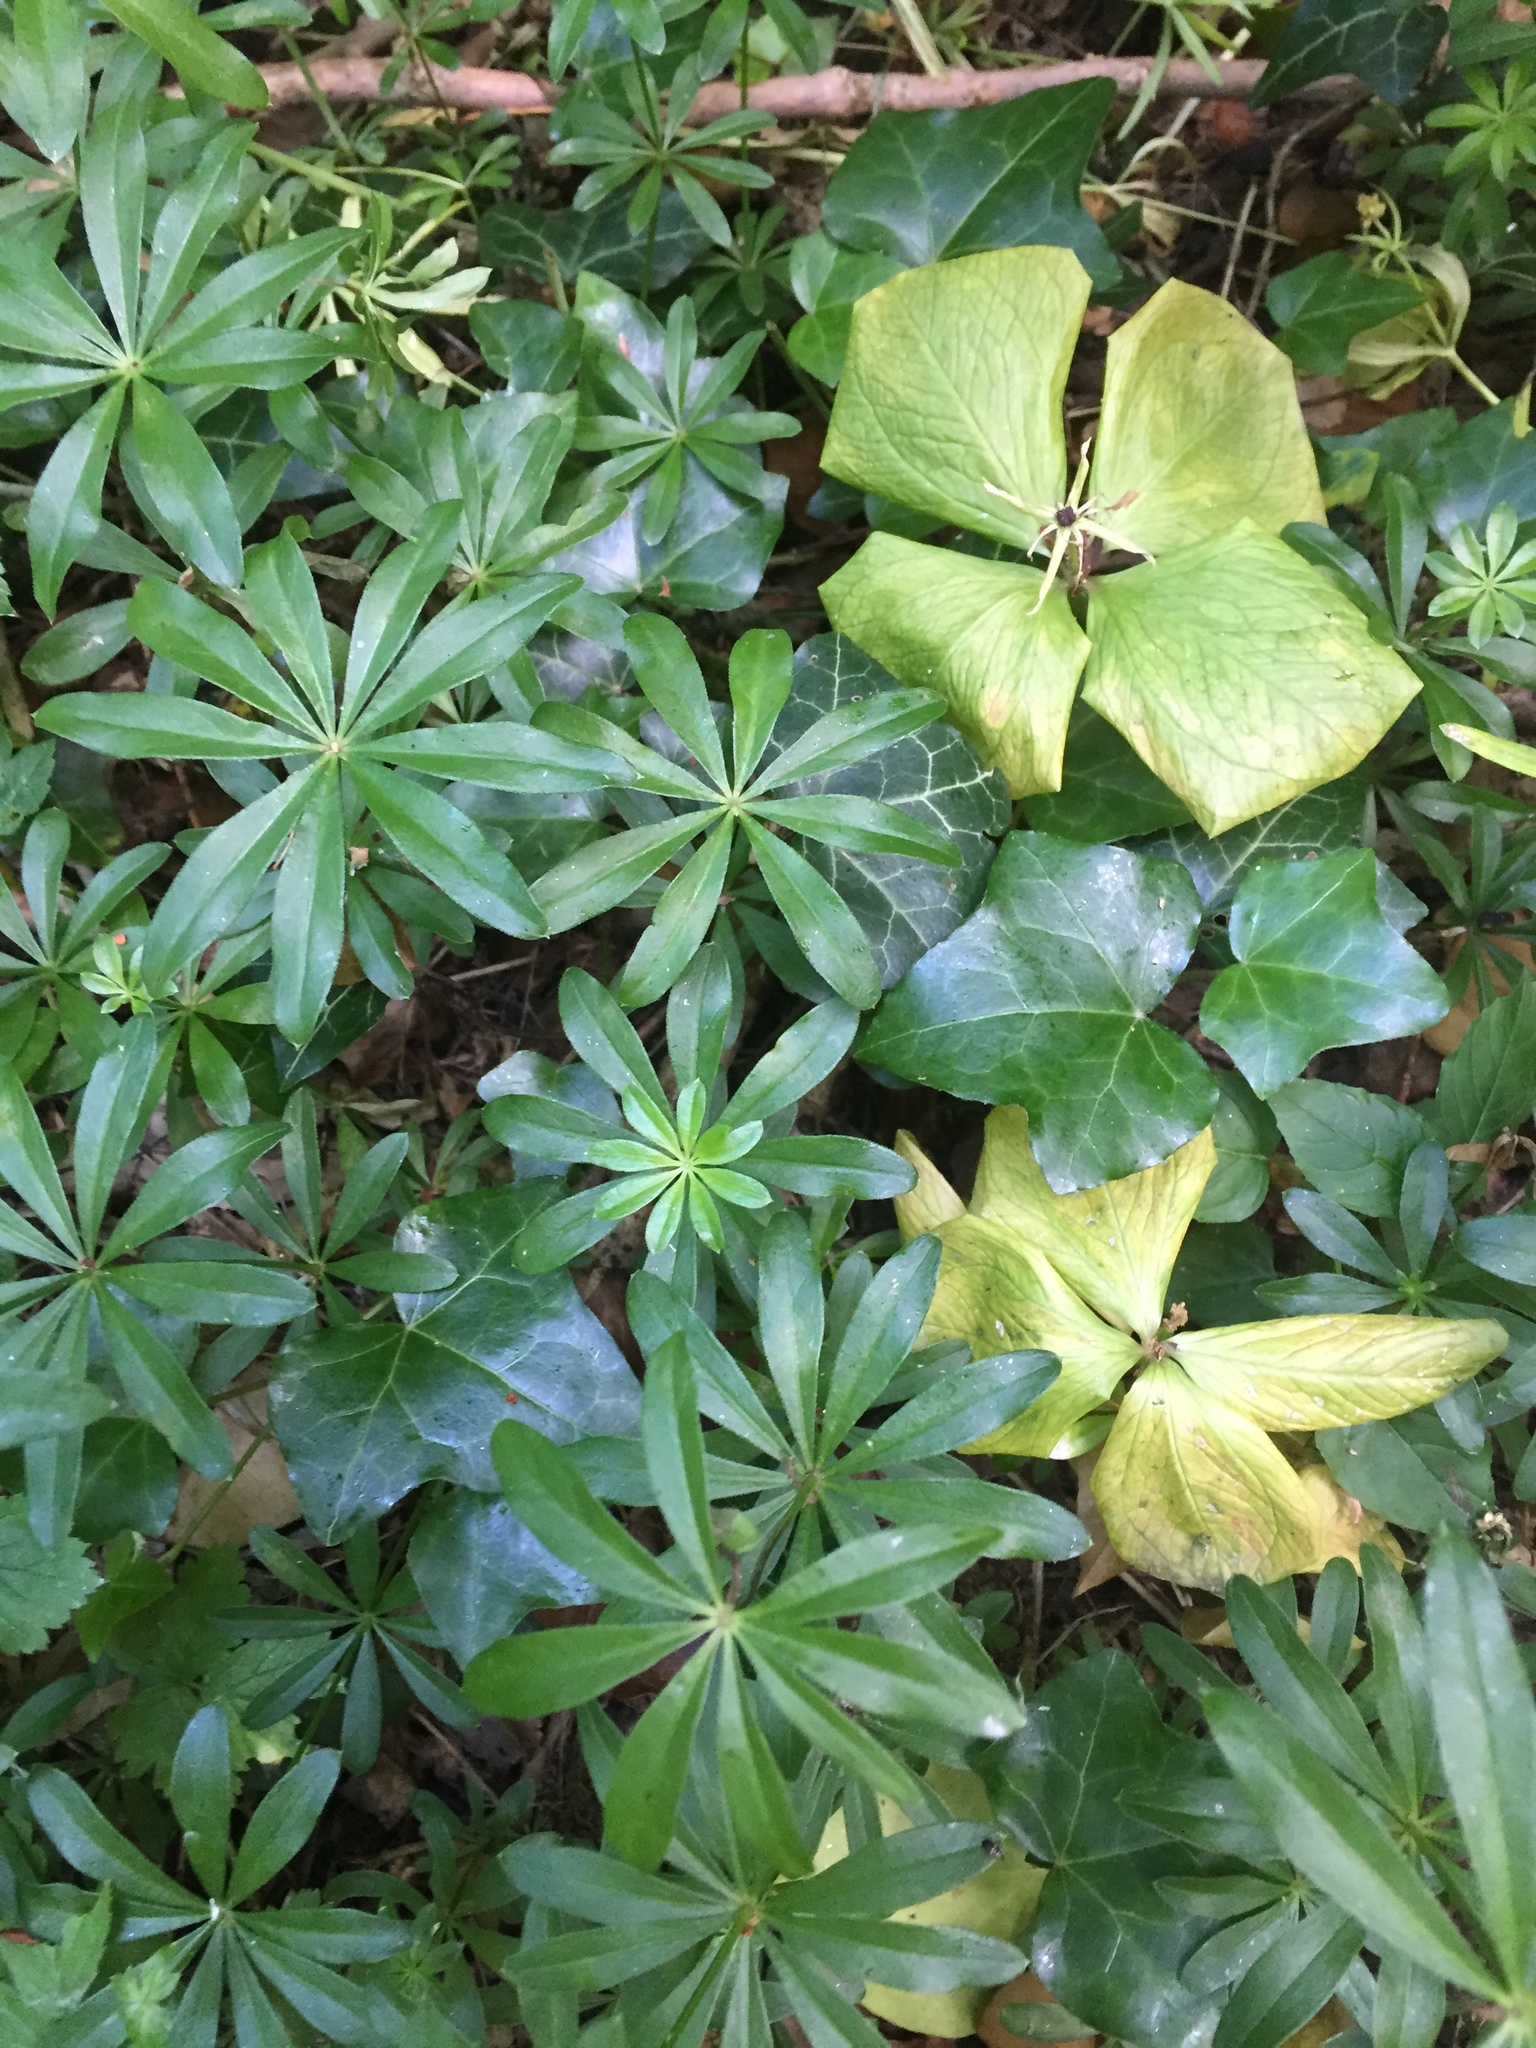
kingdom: Plantae
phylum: Tracheophyta
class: Magnoliopsida
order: Gentianales
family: Rubiaceae
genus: Galium
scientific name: Galium odoratum
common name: Sweet woodruff
